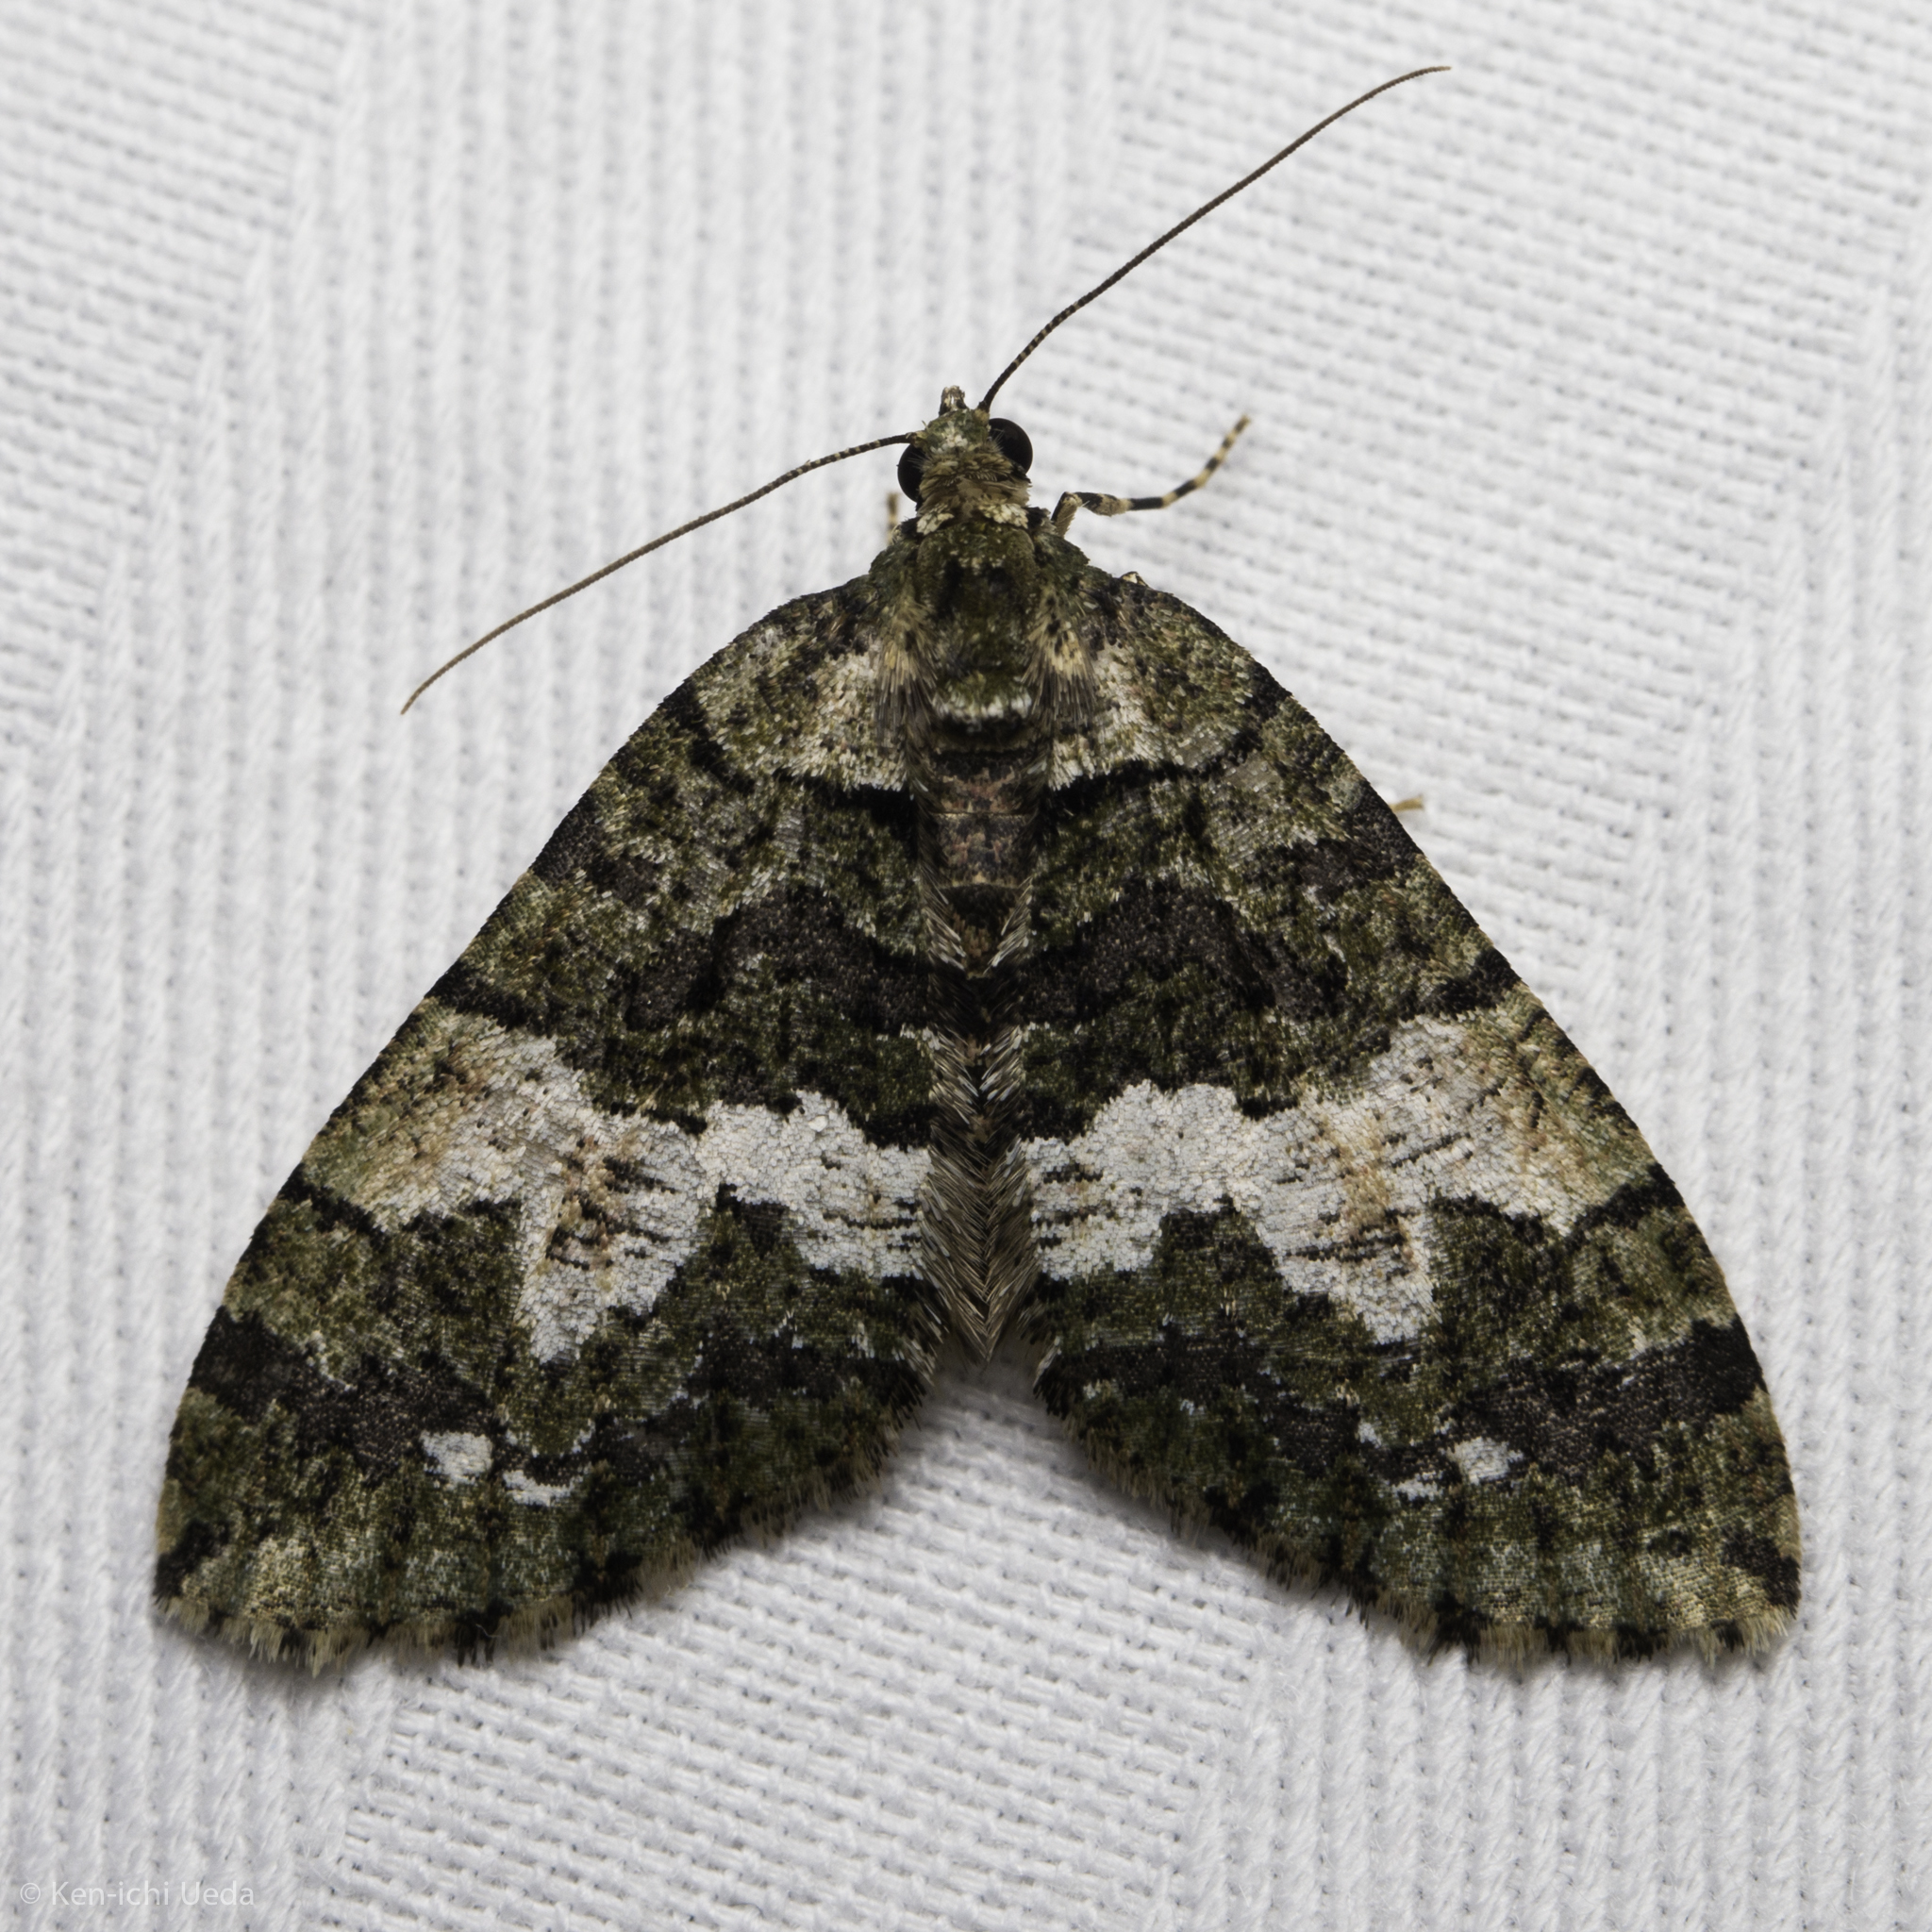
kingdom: Animalia
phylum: Arthropoda
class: Insecta
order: Lepidoptera
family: Geometridae
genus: Hydriomena
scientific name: Hydriomena albifasciata
